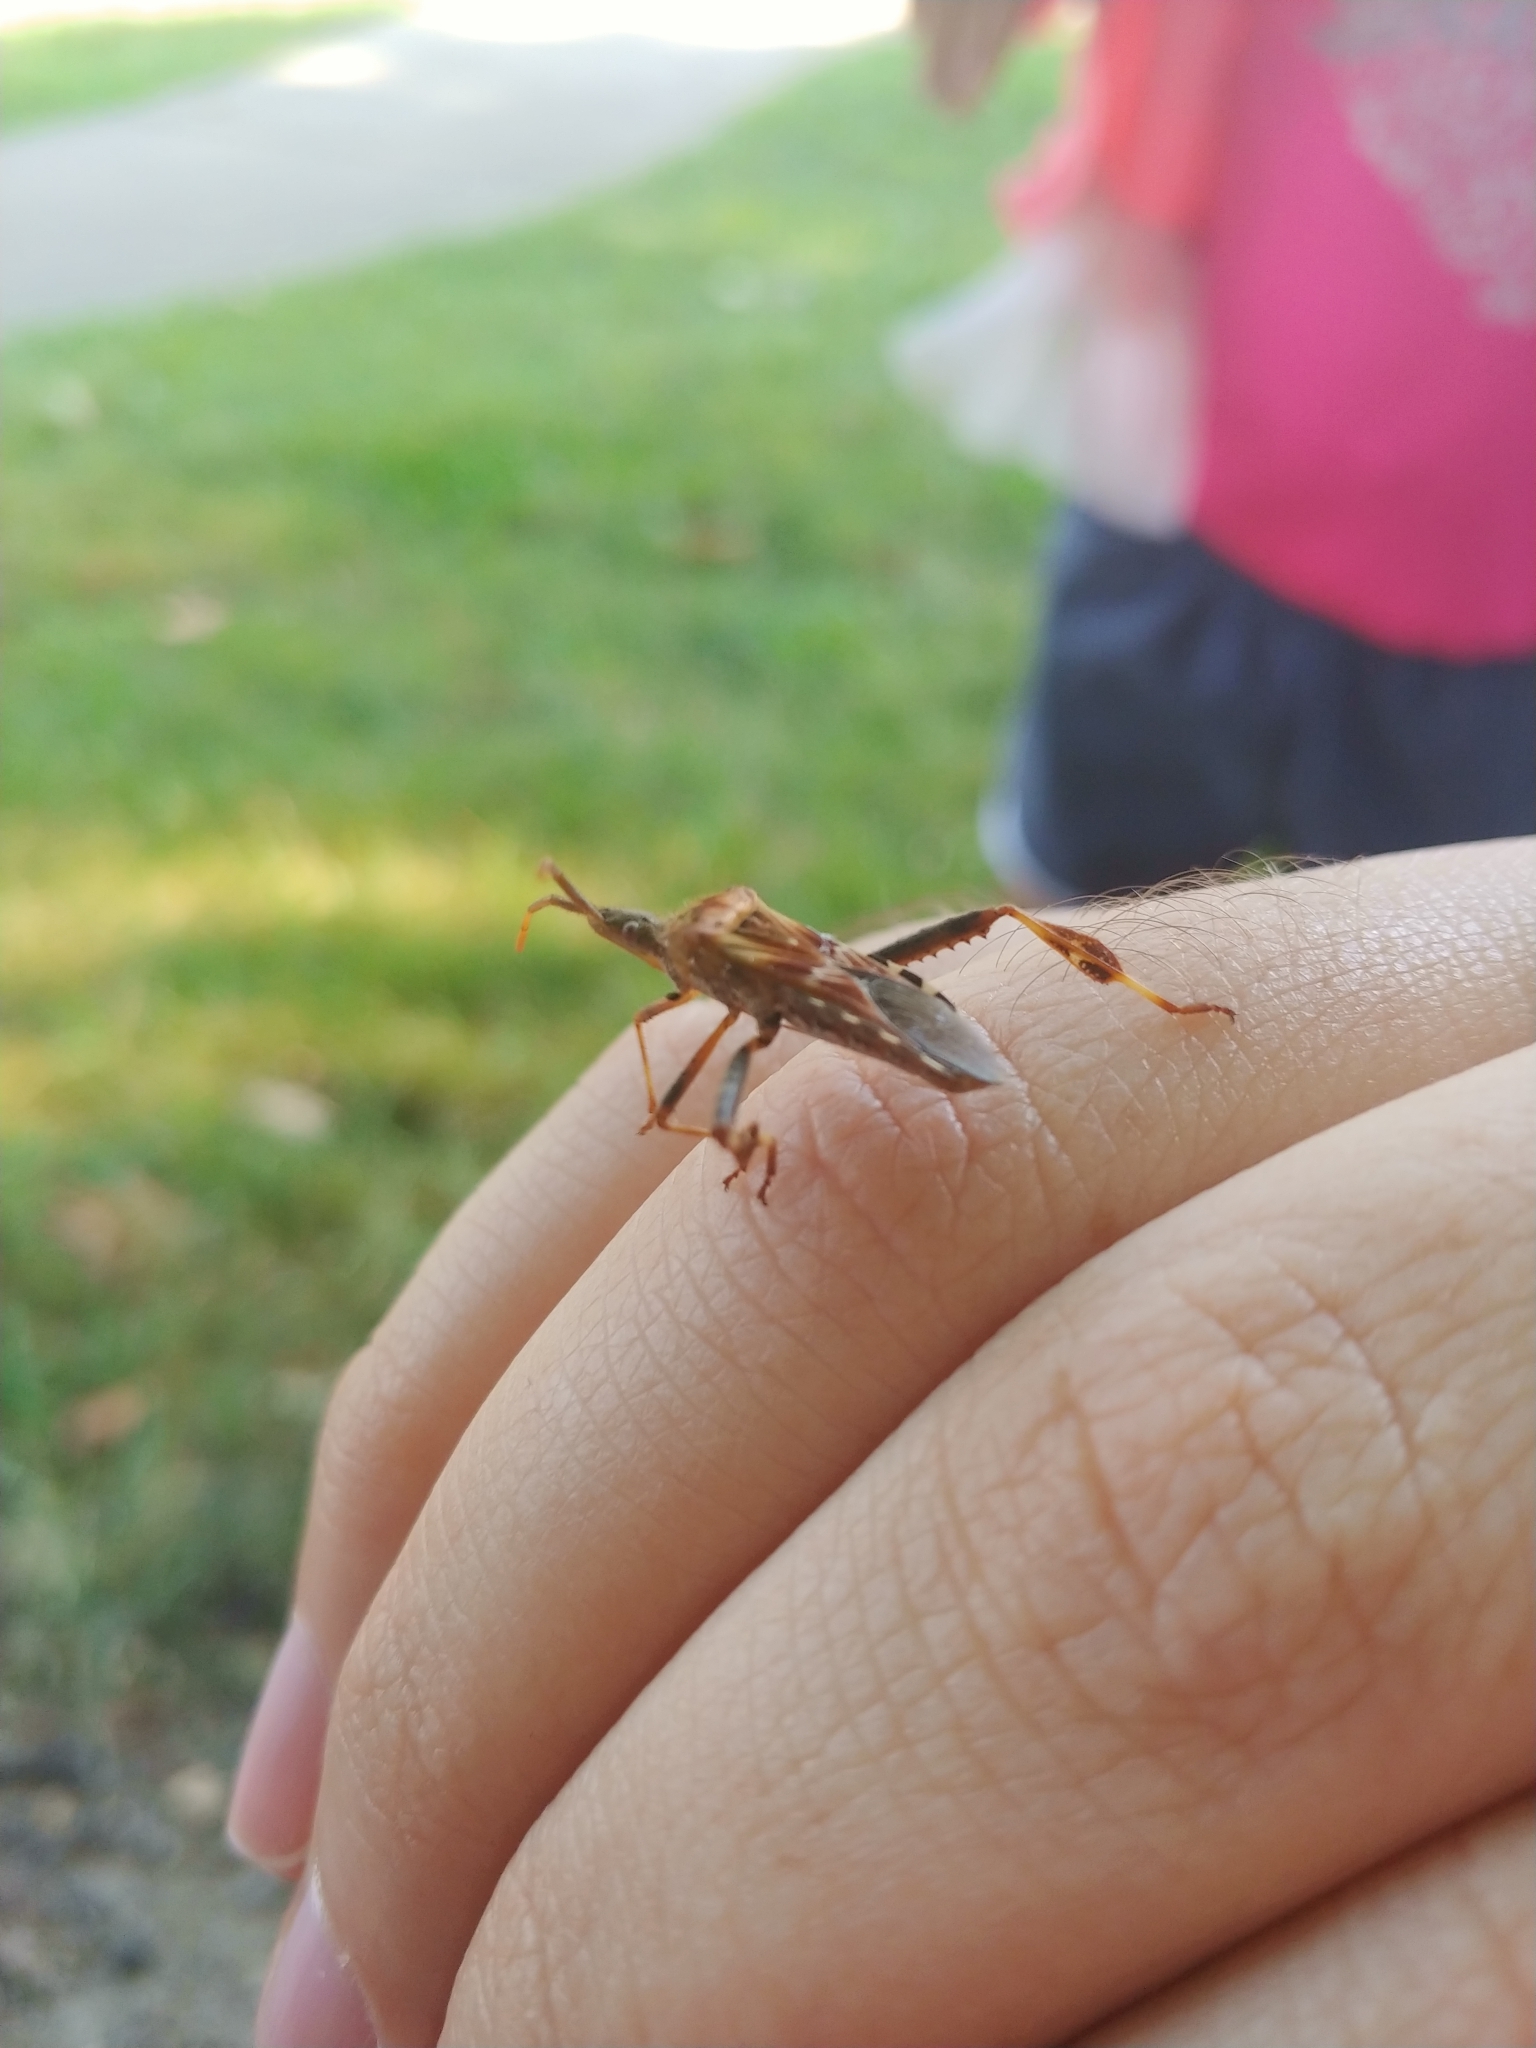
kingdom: Animalia
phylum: Arthropoda
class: Insecta
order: Hemiptera
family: Coreidae
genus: Leptoglossus
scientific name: Leptoglossus occidentalis
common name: Western conifer-seed bug
